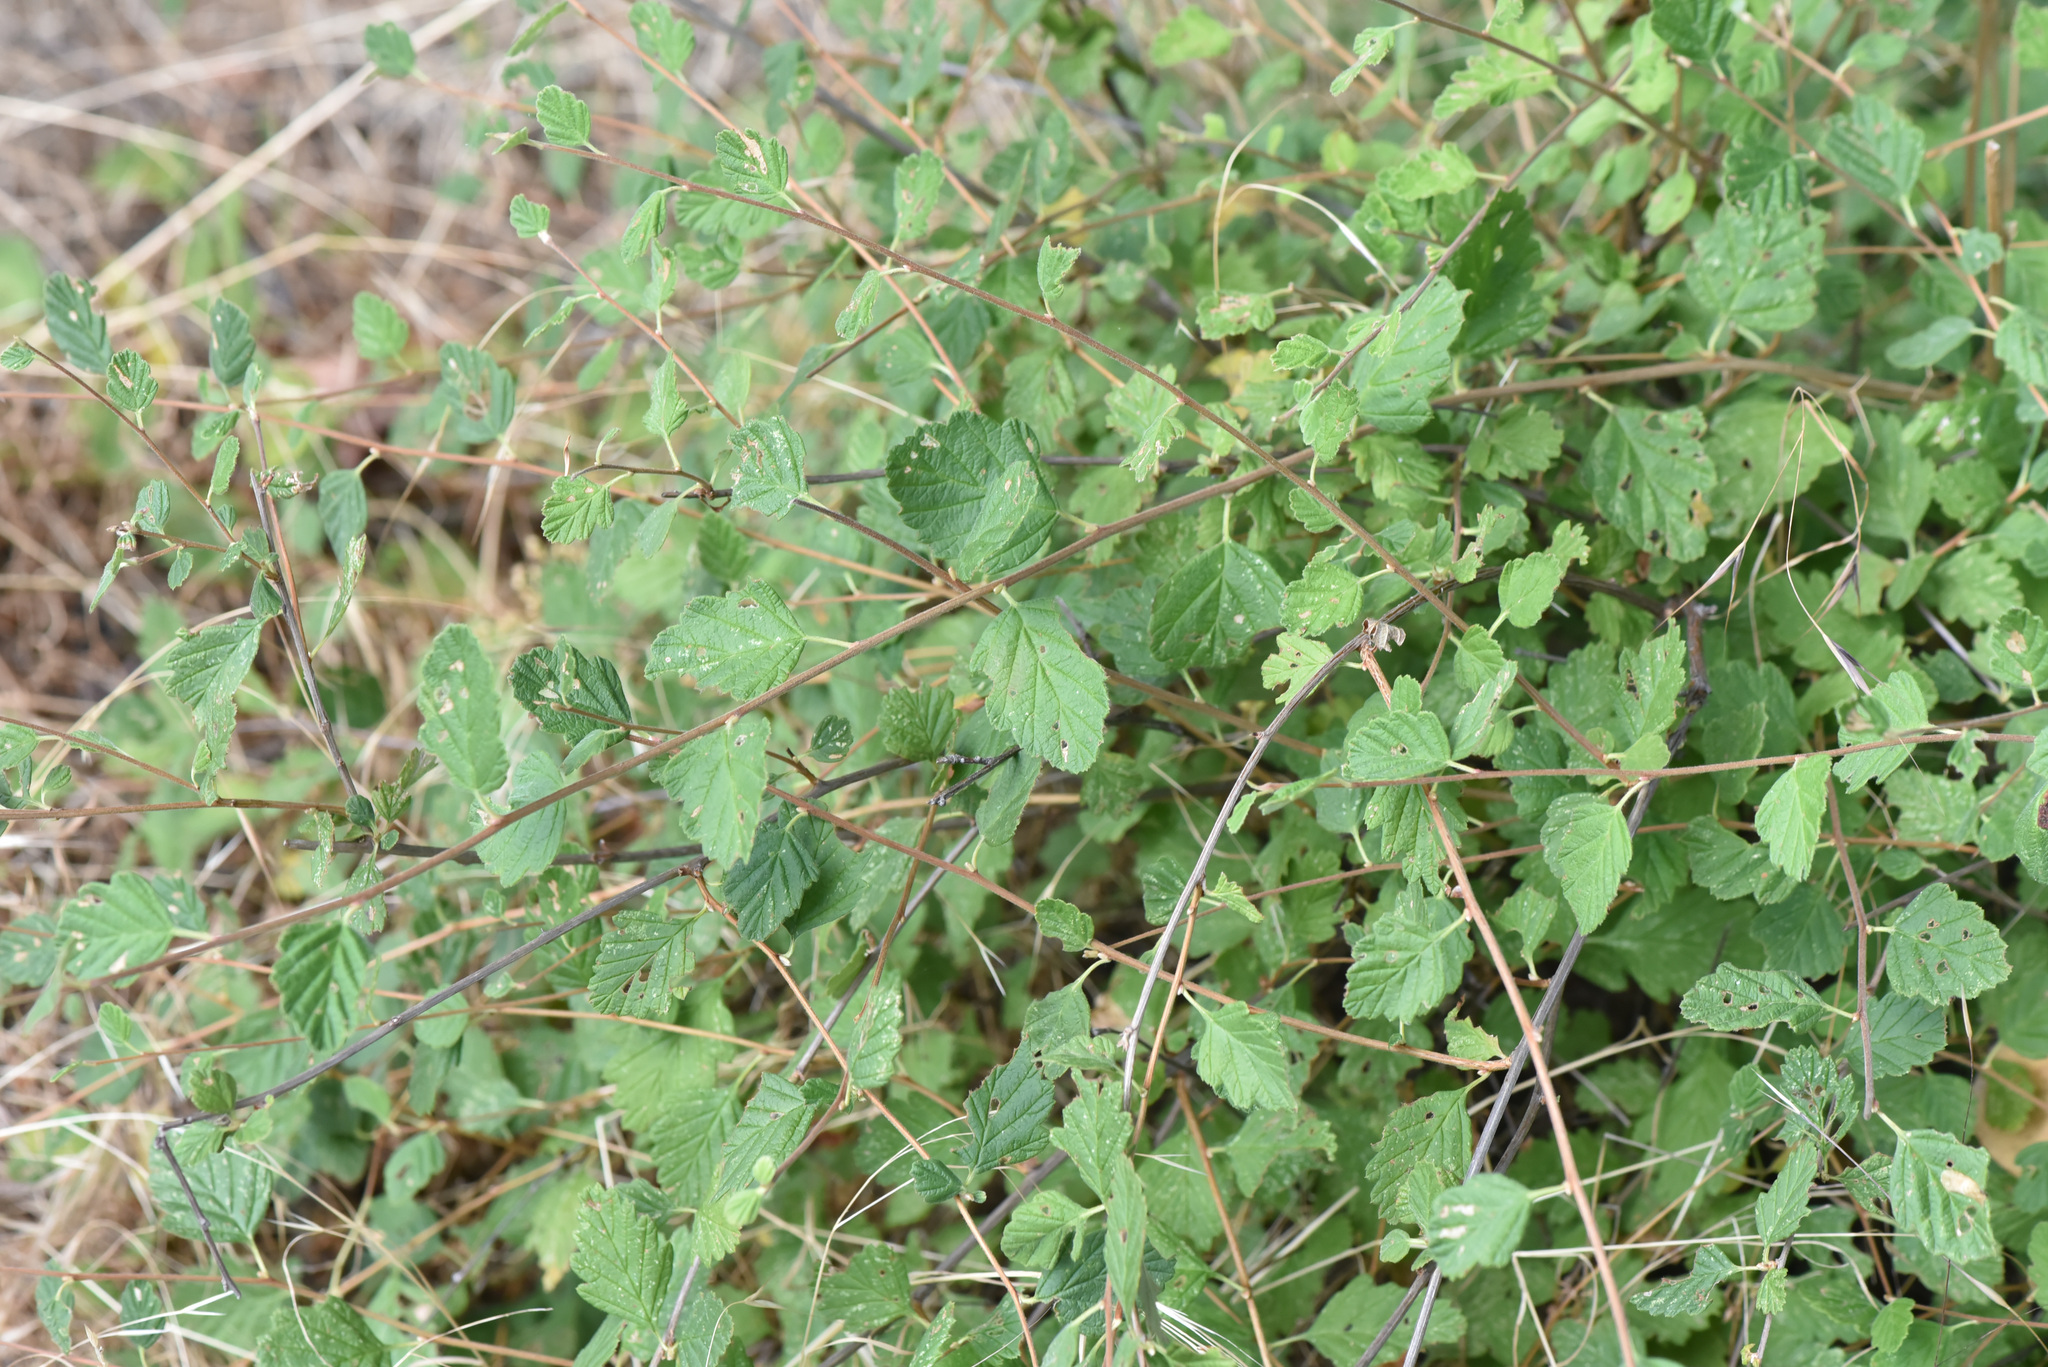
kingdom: Plantae
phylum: Tracheophyta
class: Magnoliopsida
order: Rosales
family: Rosaceae
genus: Holodiscus
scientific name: Holodiscus discolor
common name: Oceanspray
